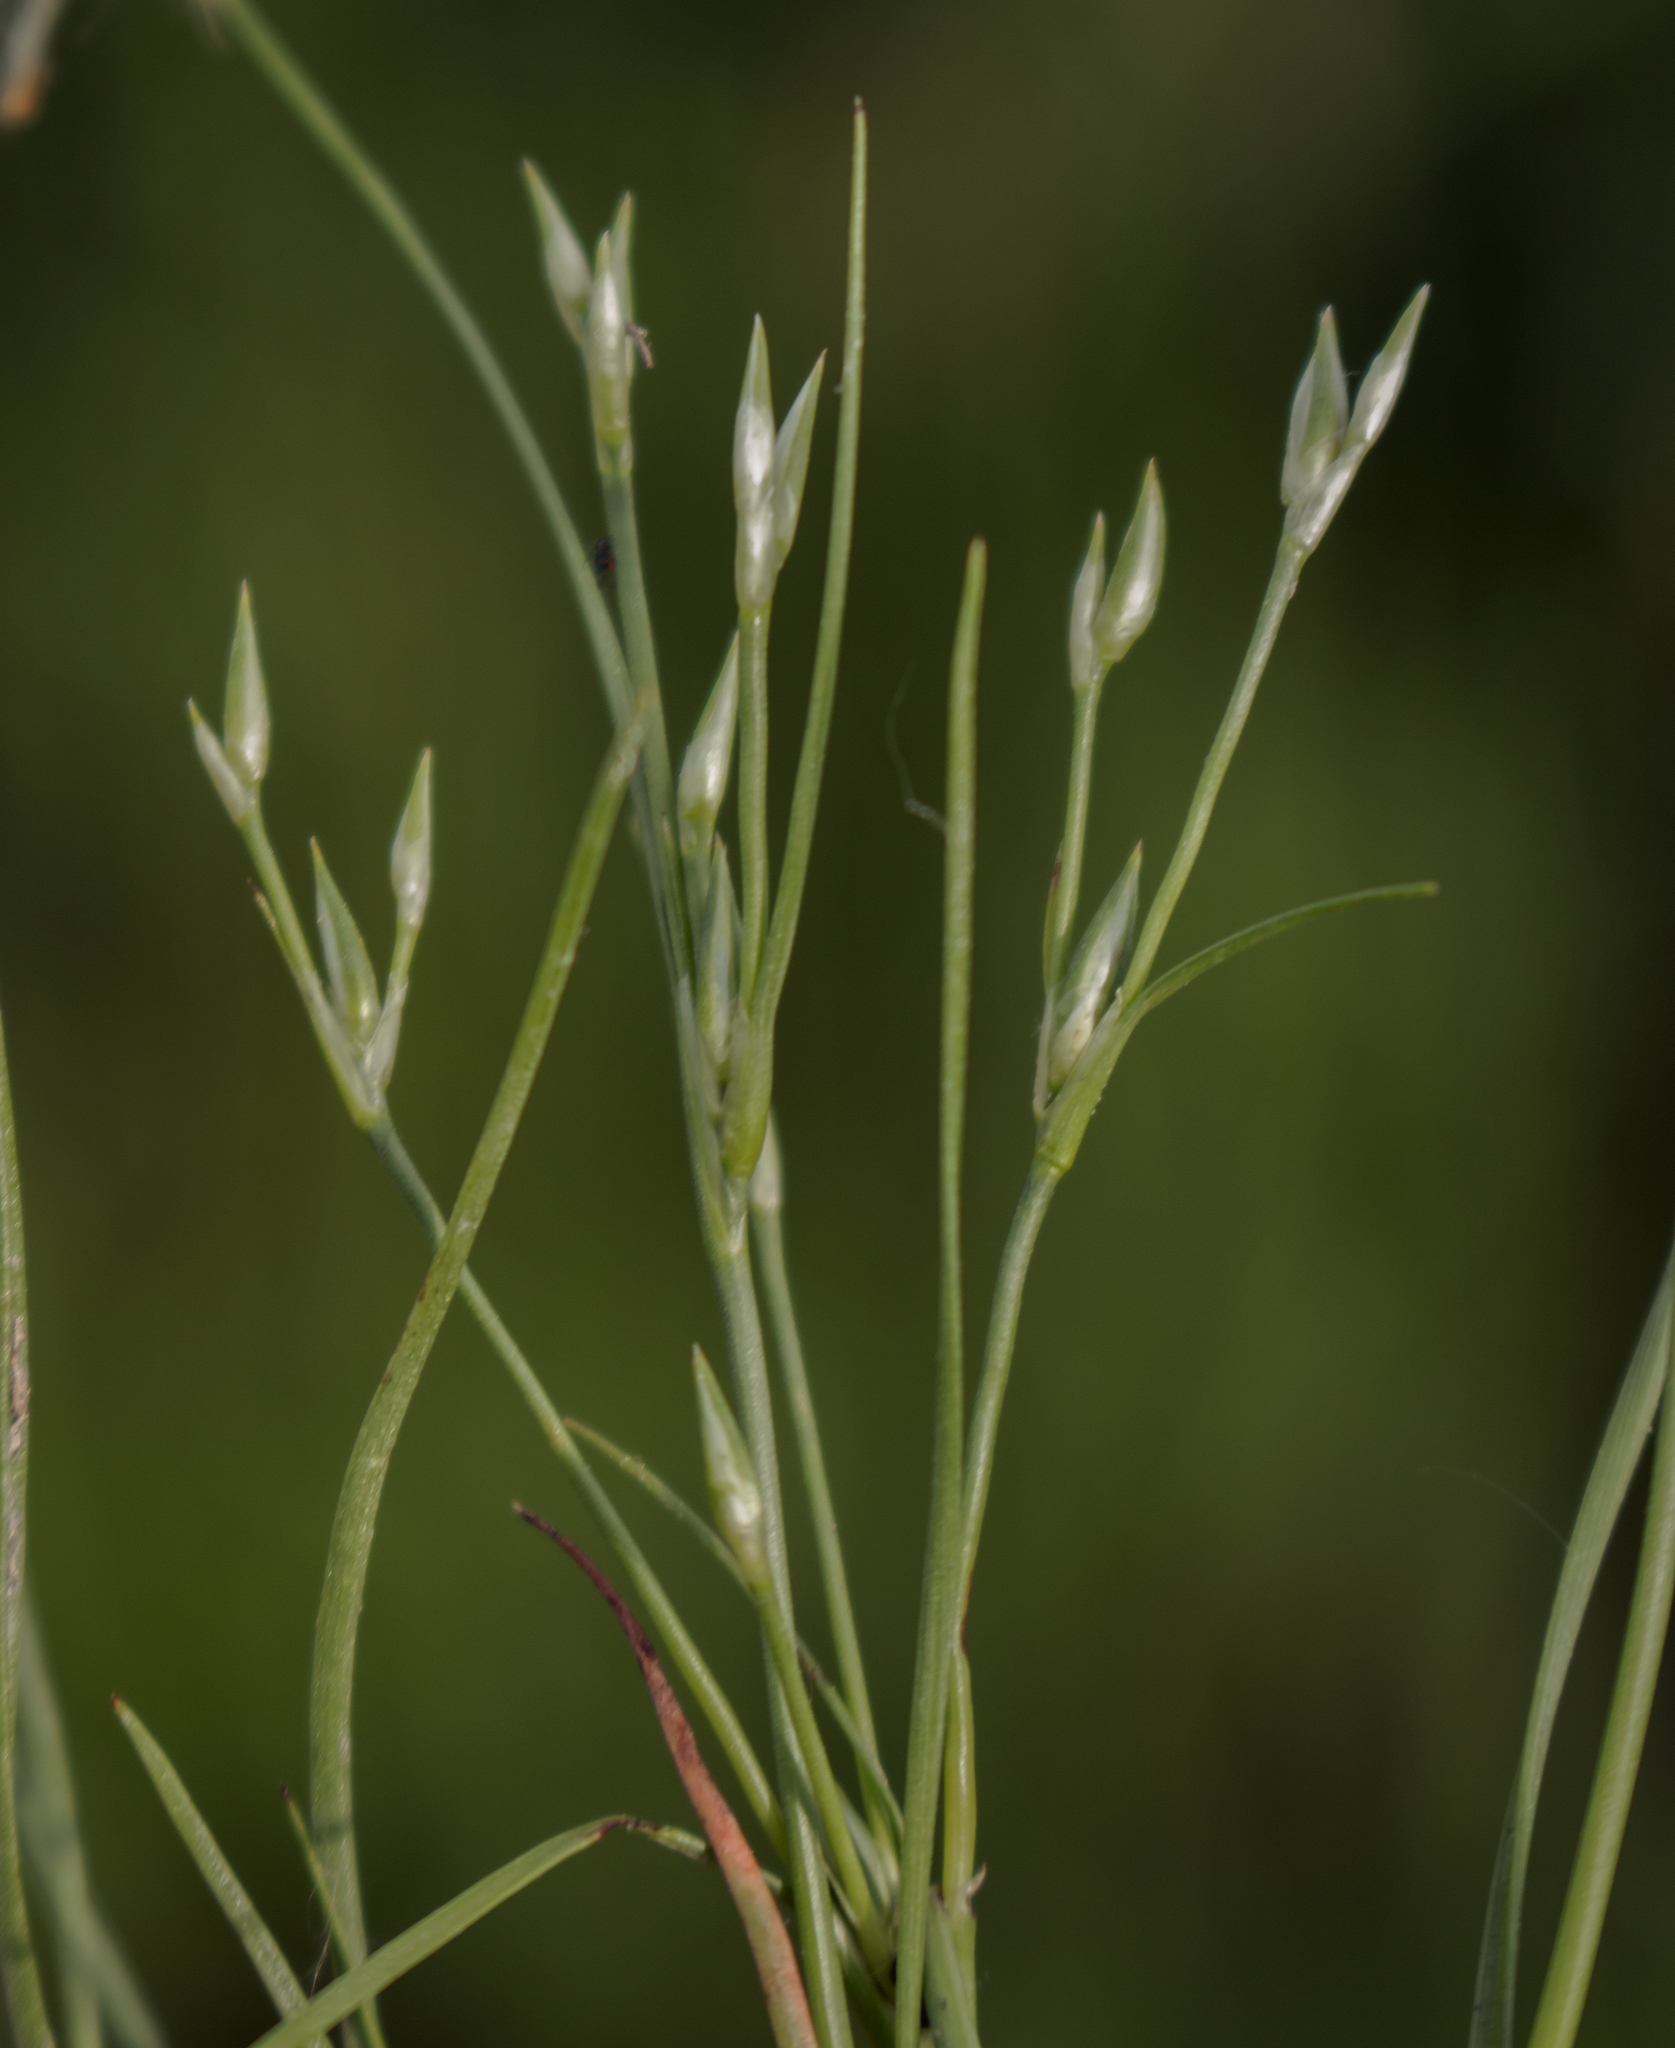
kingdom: Plantae
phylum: Tracheophyta
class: Liliopsida
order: Poales
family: Juncaceae
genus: Juncus
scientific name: Juncus bufonius
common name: Toad rush
